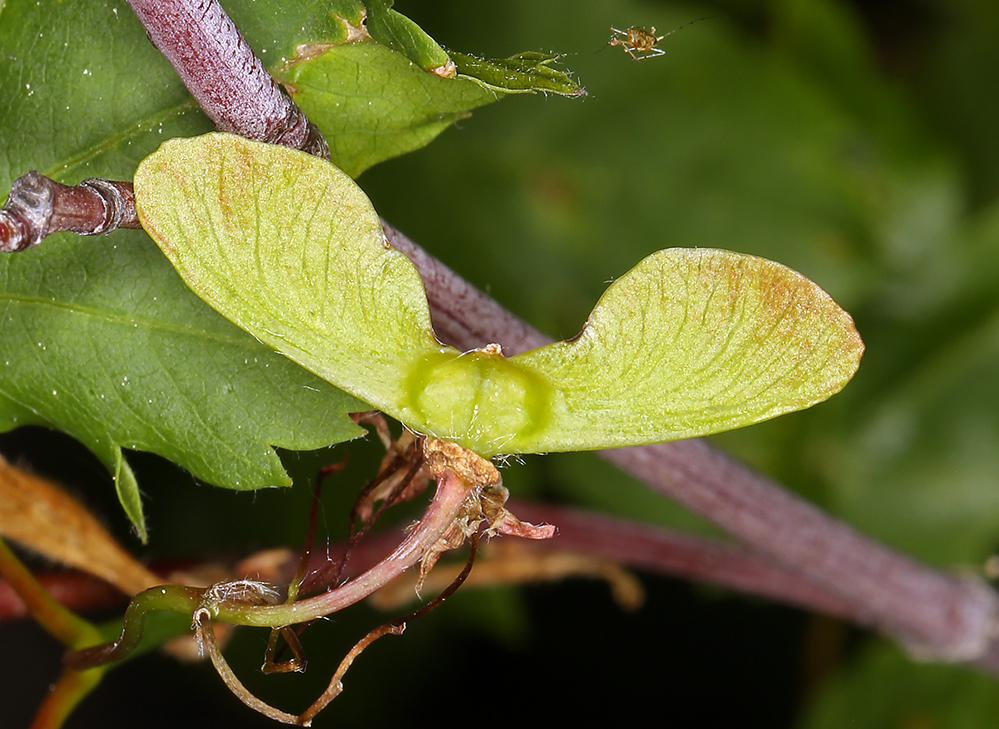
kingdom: Plantae
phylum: Tracheophyta
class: Magnoliopsida
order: Sapindales
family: Sapindaceae
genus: Acer
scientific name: Acer circinatum
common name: Vine maple
